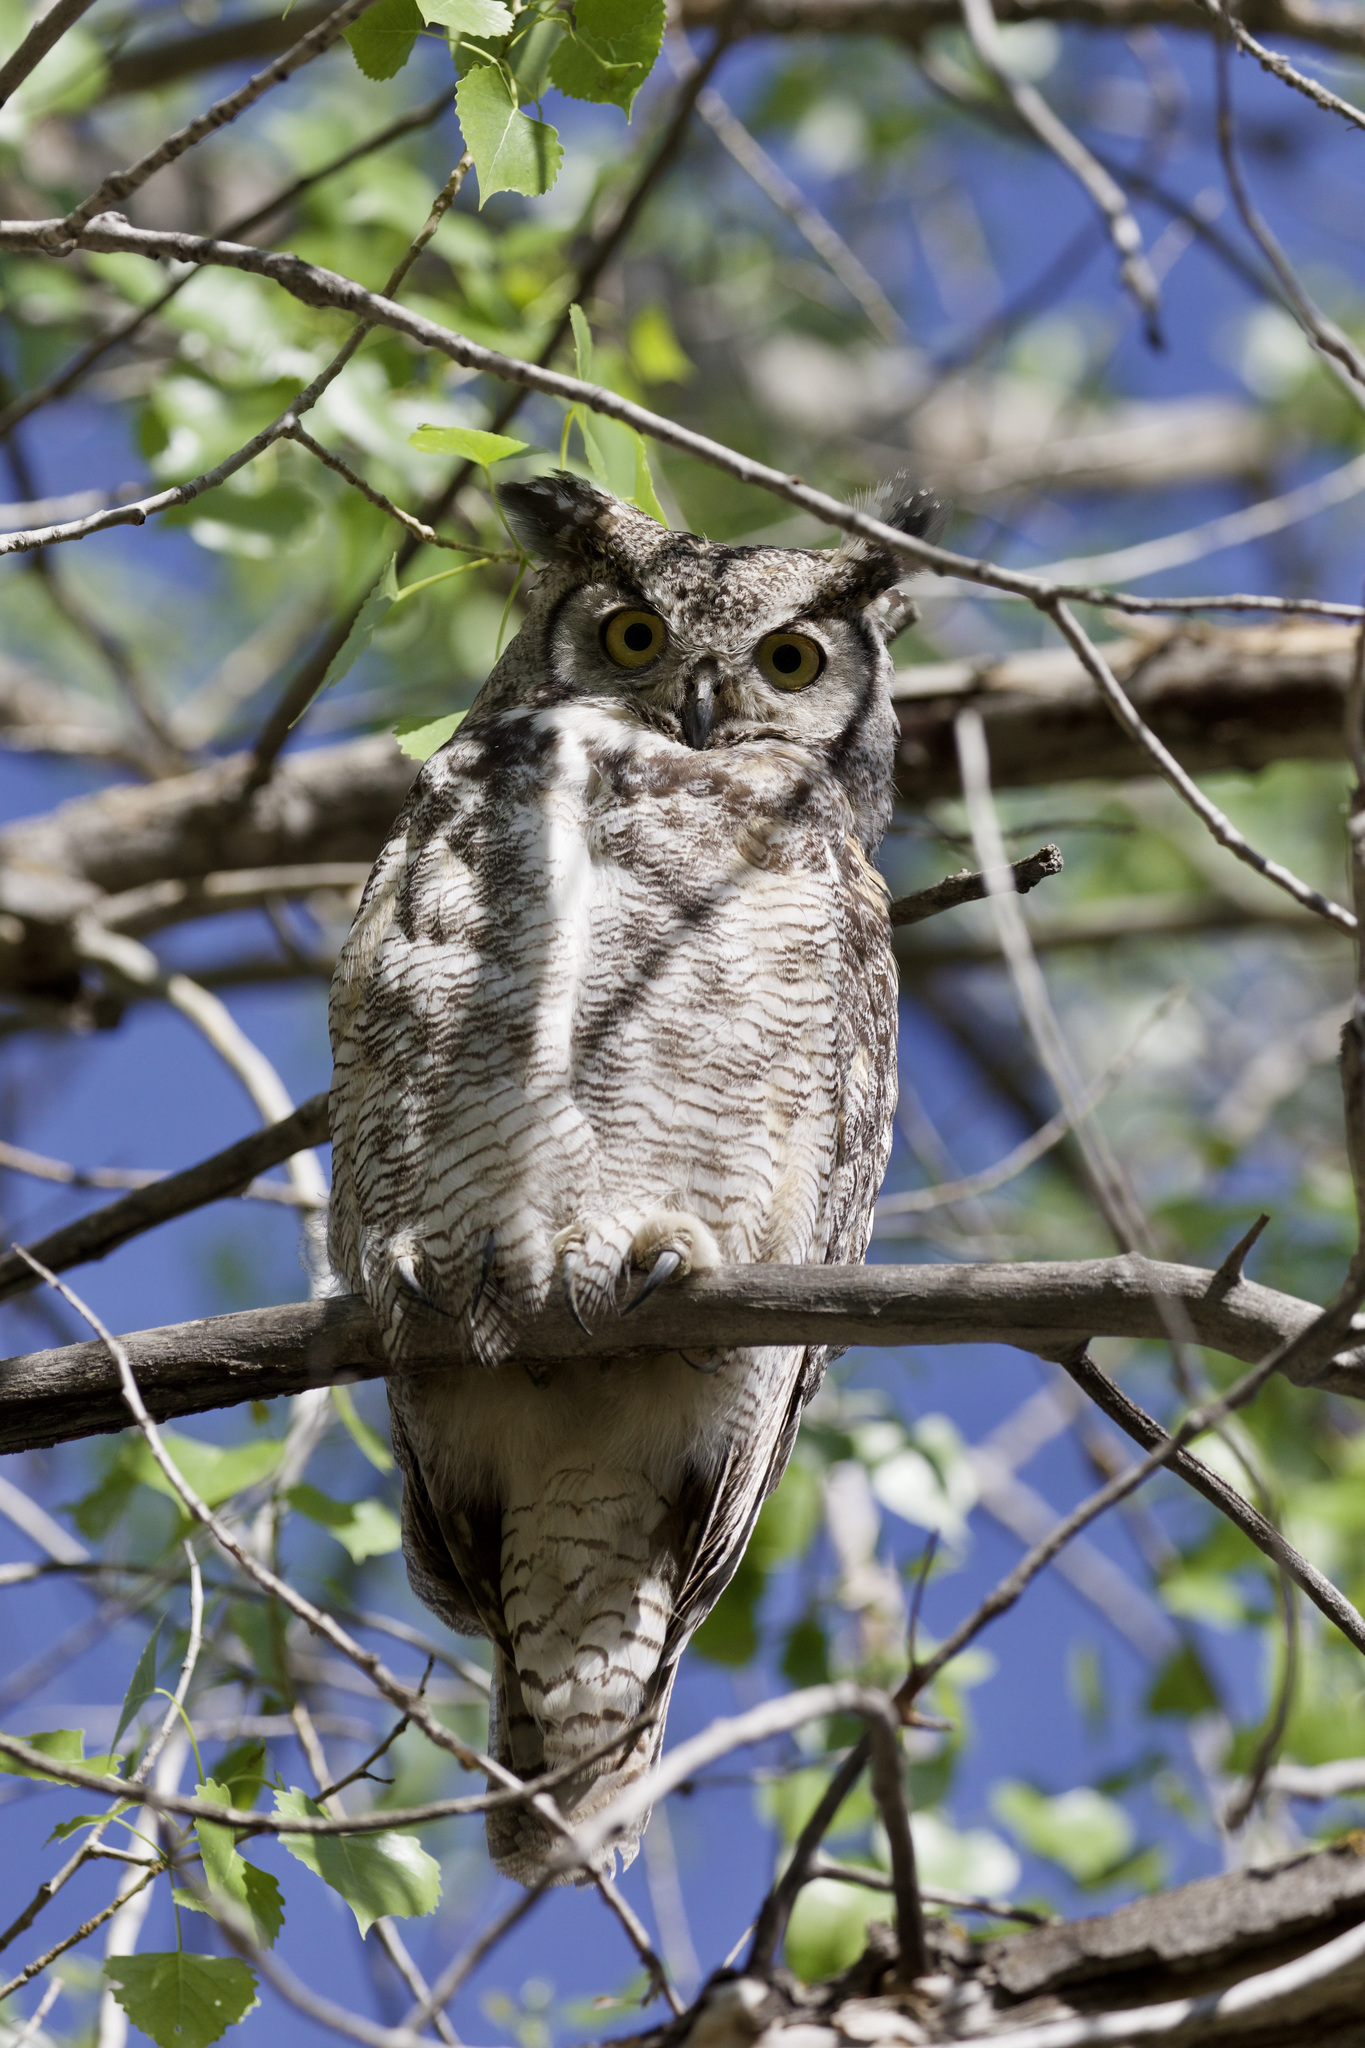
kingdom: Animalia
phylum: Chordata
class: Aves
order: Strigiformes
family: Strigidae
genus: Bubo
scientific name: Bubo virginianus
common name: Great horned owl
